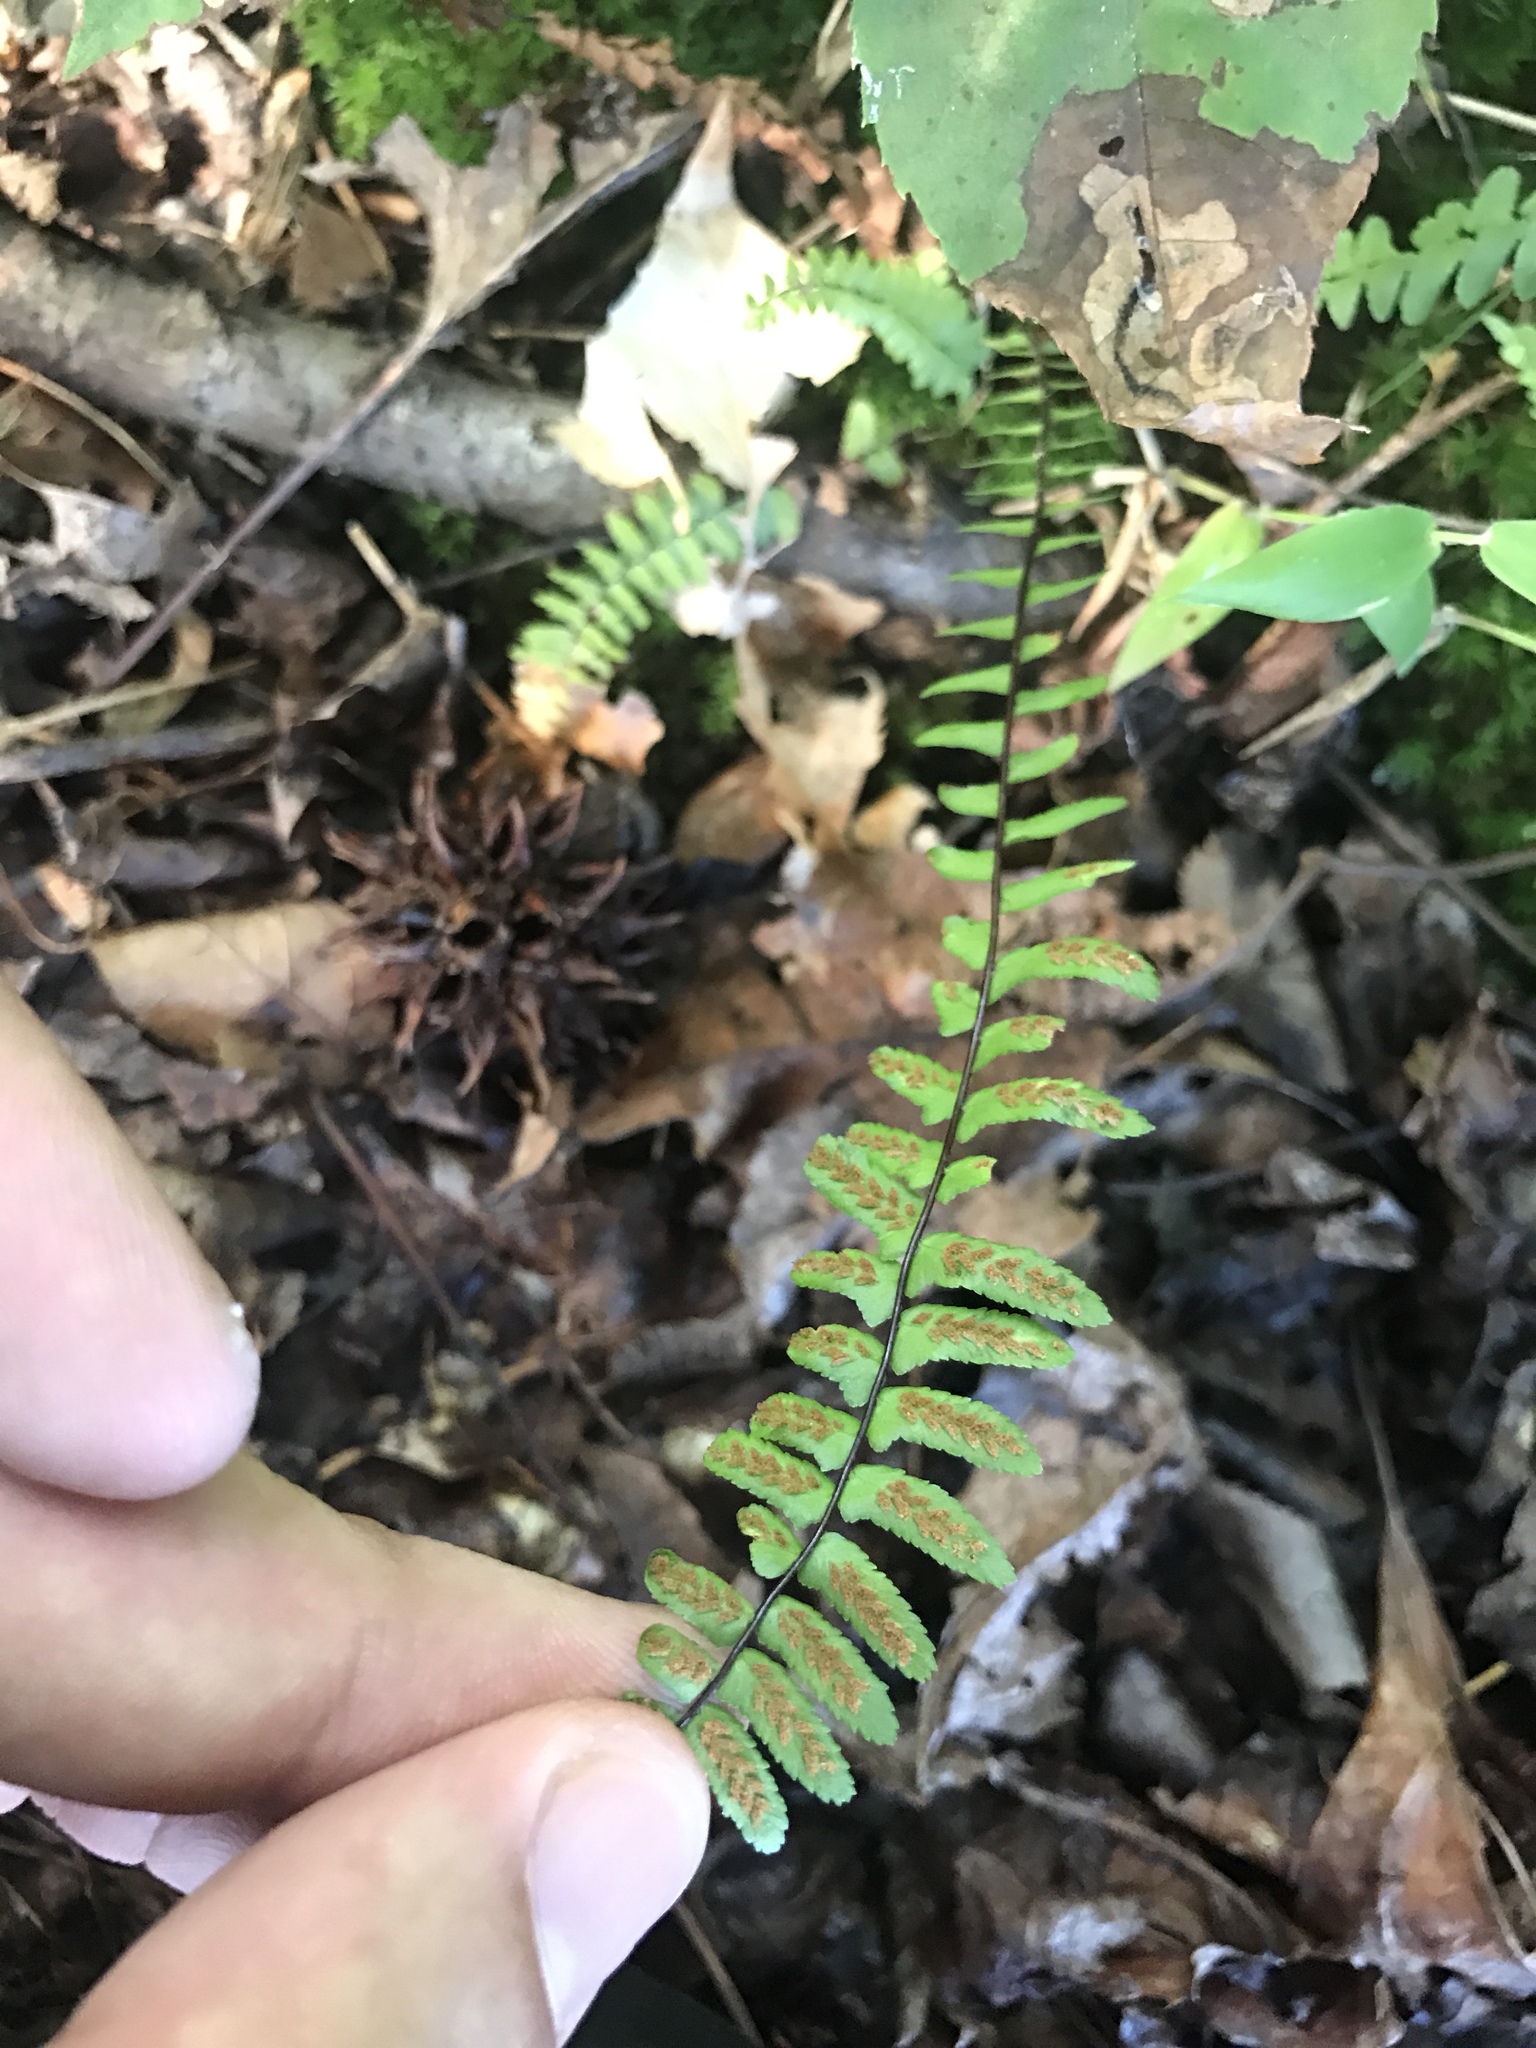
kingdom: Plantae
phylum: Tracheophyta
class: Polypodiopsida
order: Polypodiales
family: Aspleniaceae
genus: Asplenium
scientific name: Asplenium platyneuron
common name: Ebony spleenwort
